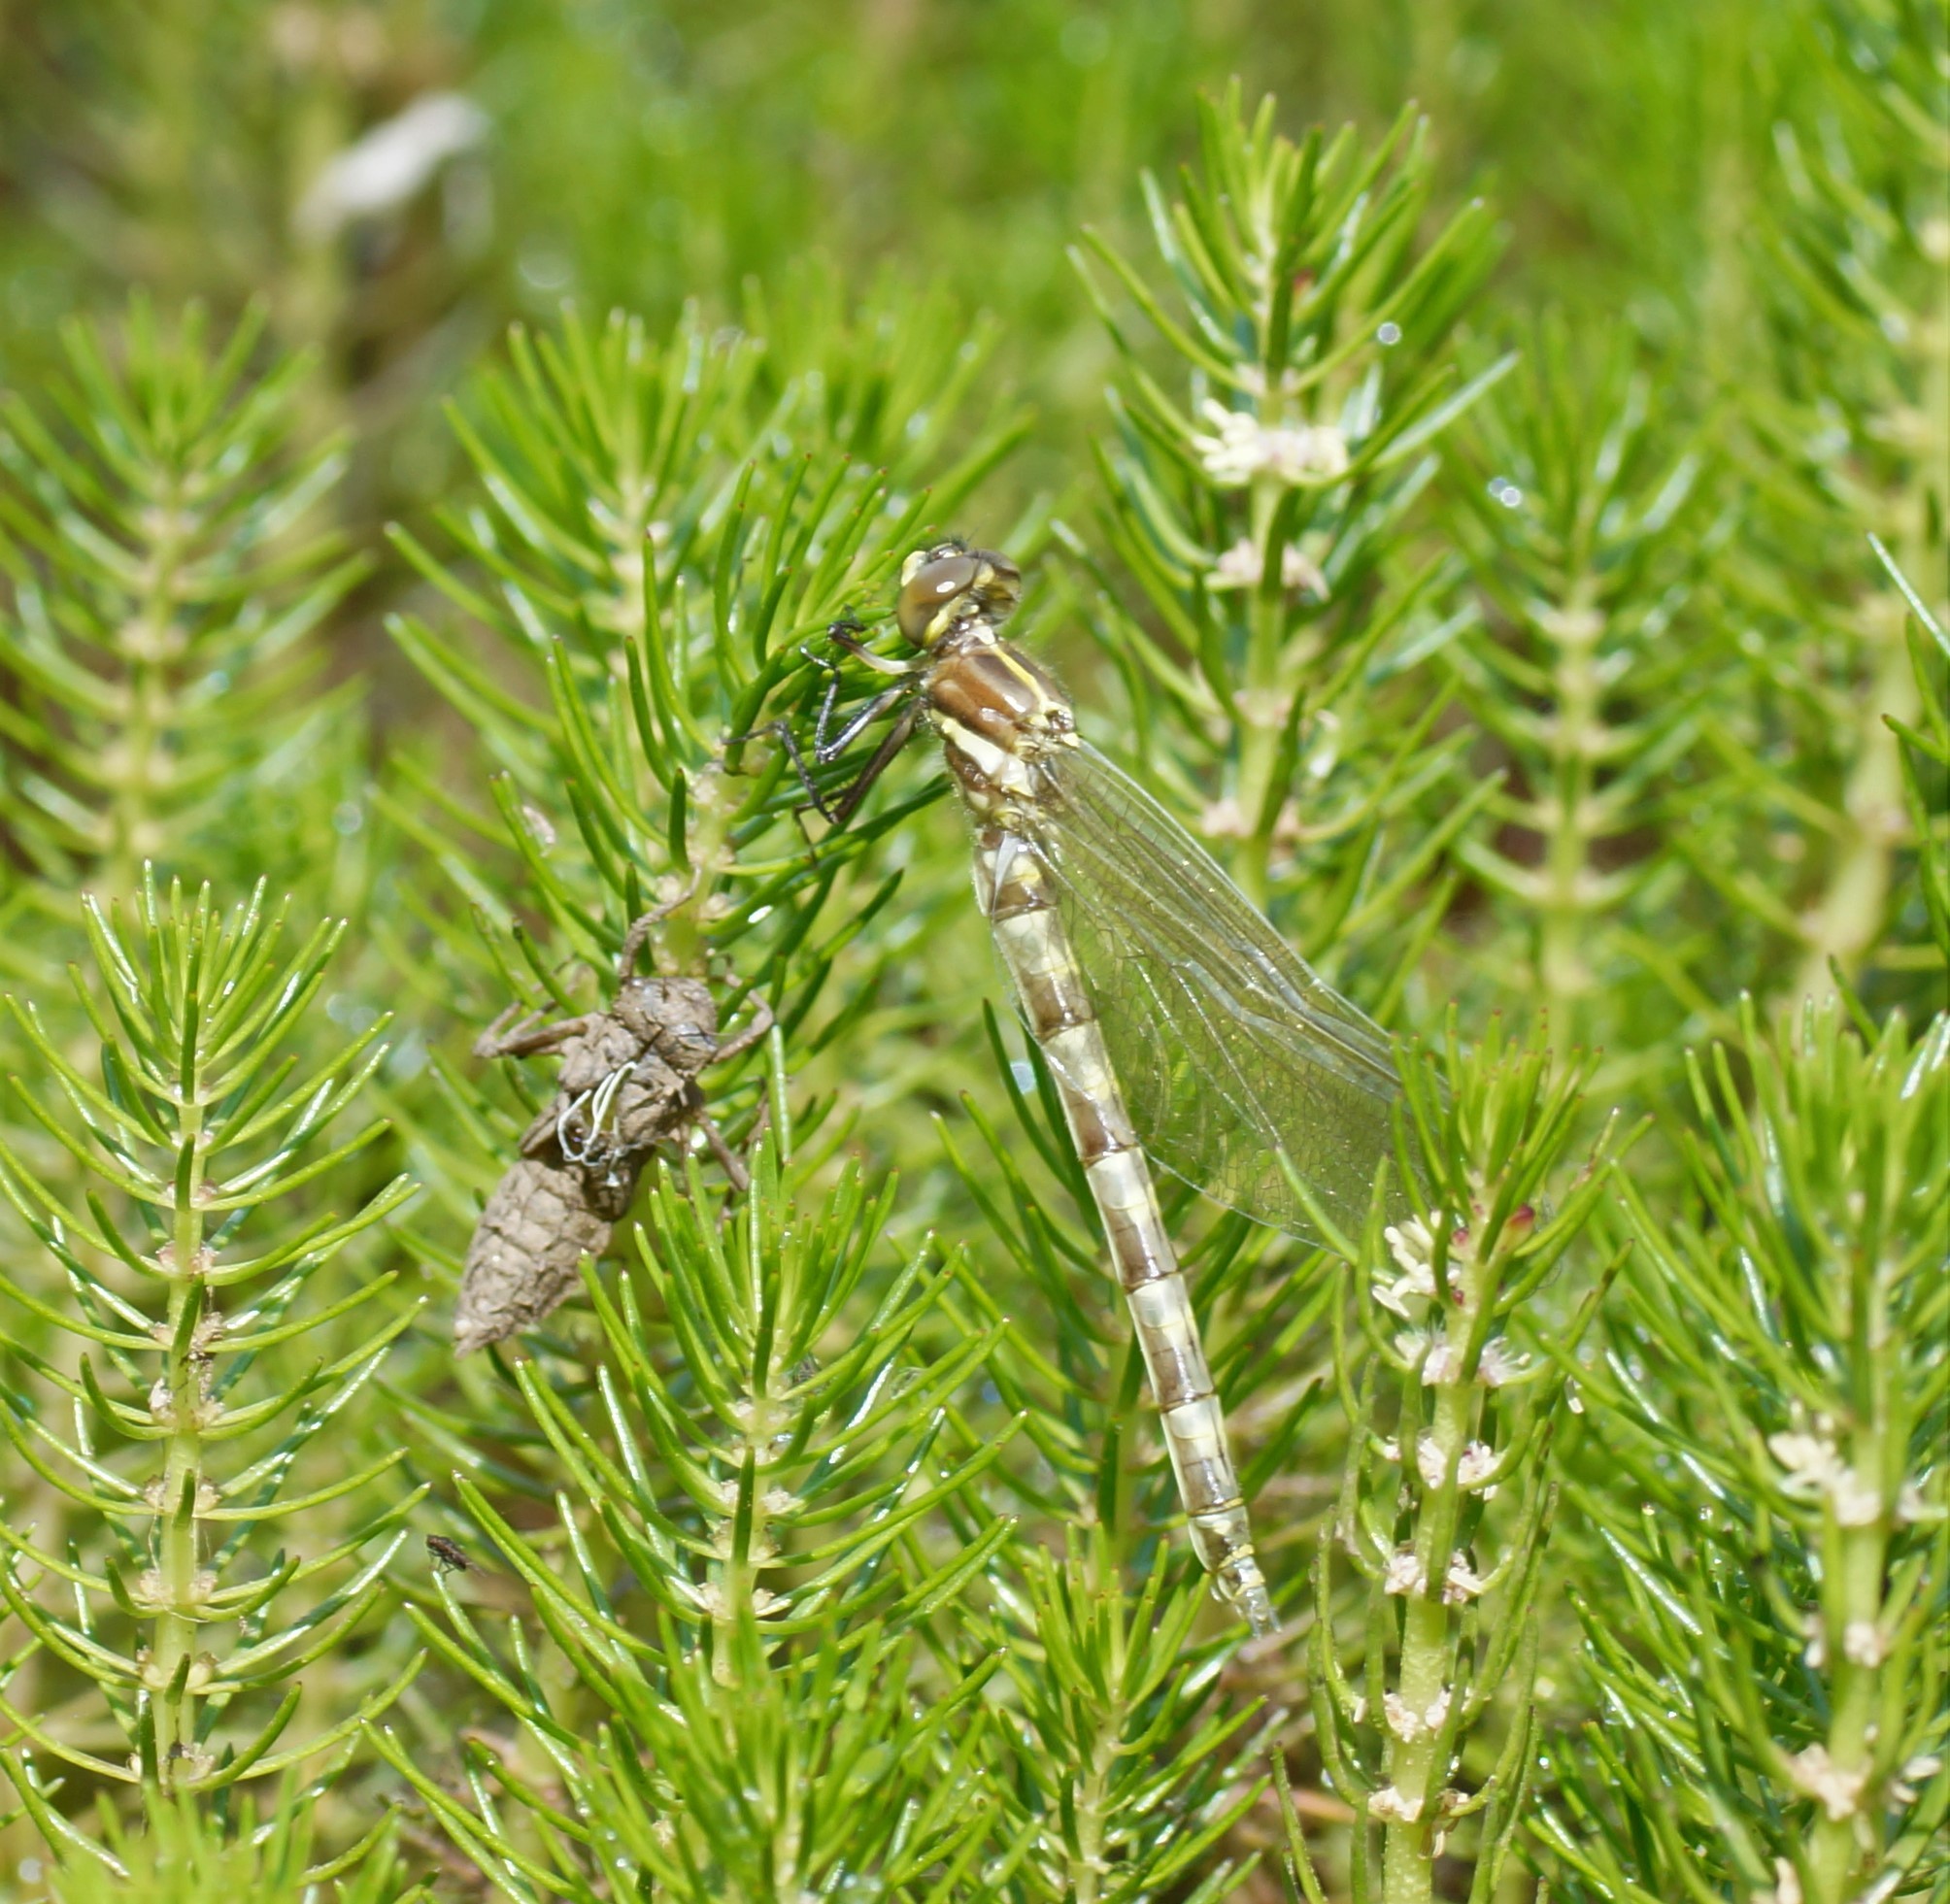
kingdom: Animalia
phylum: Arthropoda
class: Insecta
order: Odonata
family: Synthemistidae
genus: Synthemis
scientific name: Synthemis eustalacta
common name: Swamp tigertail
